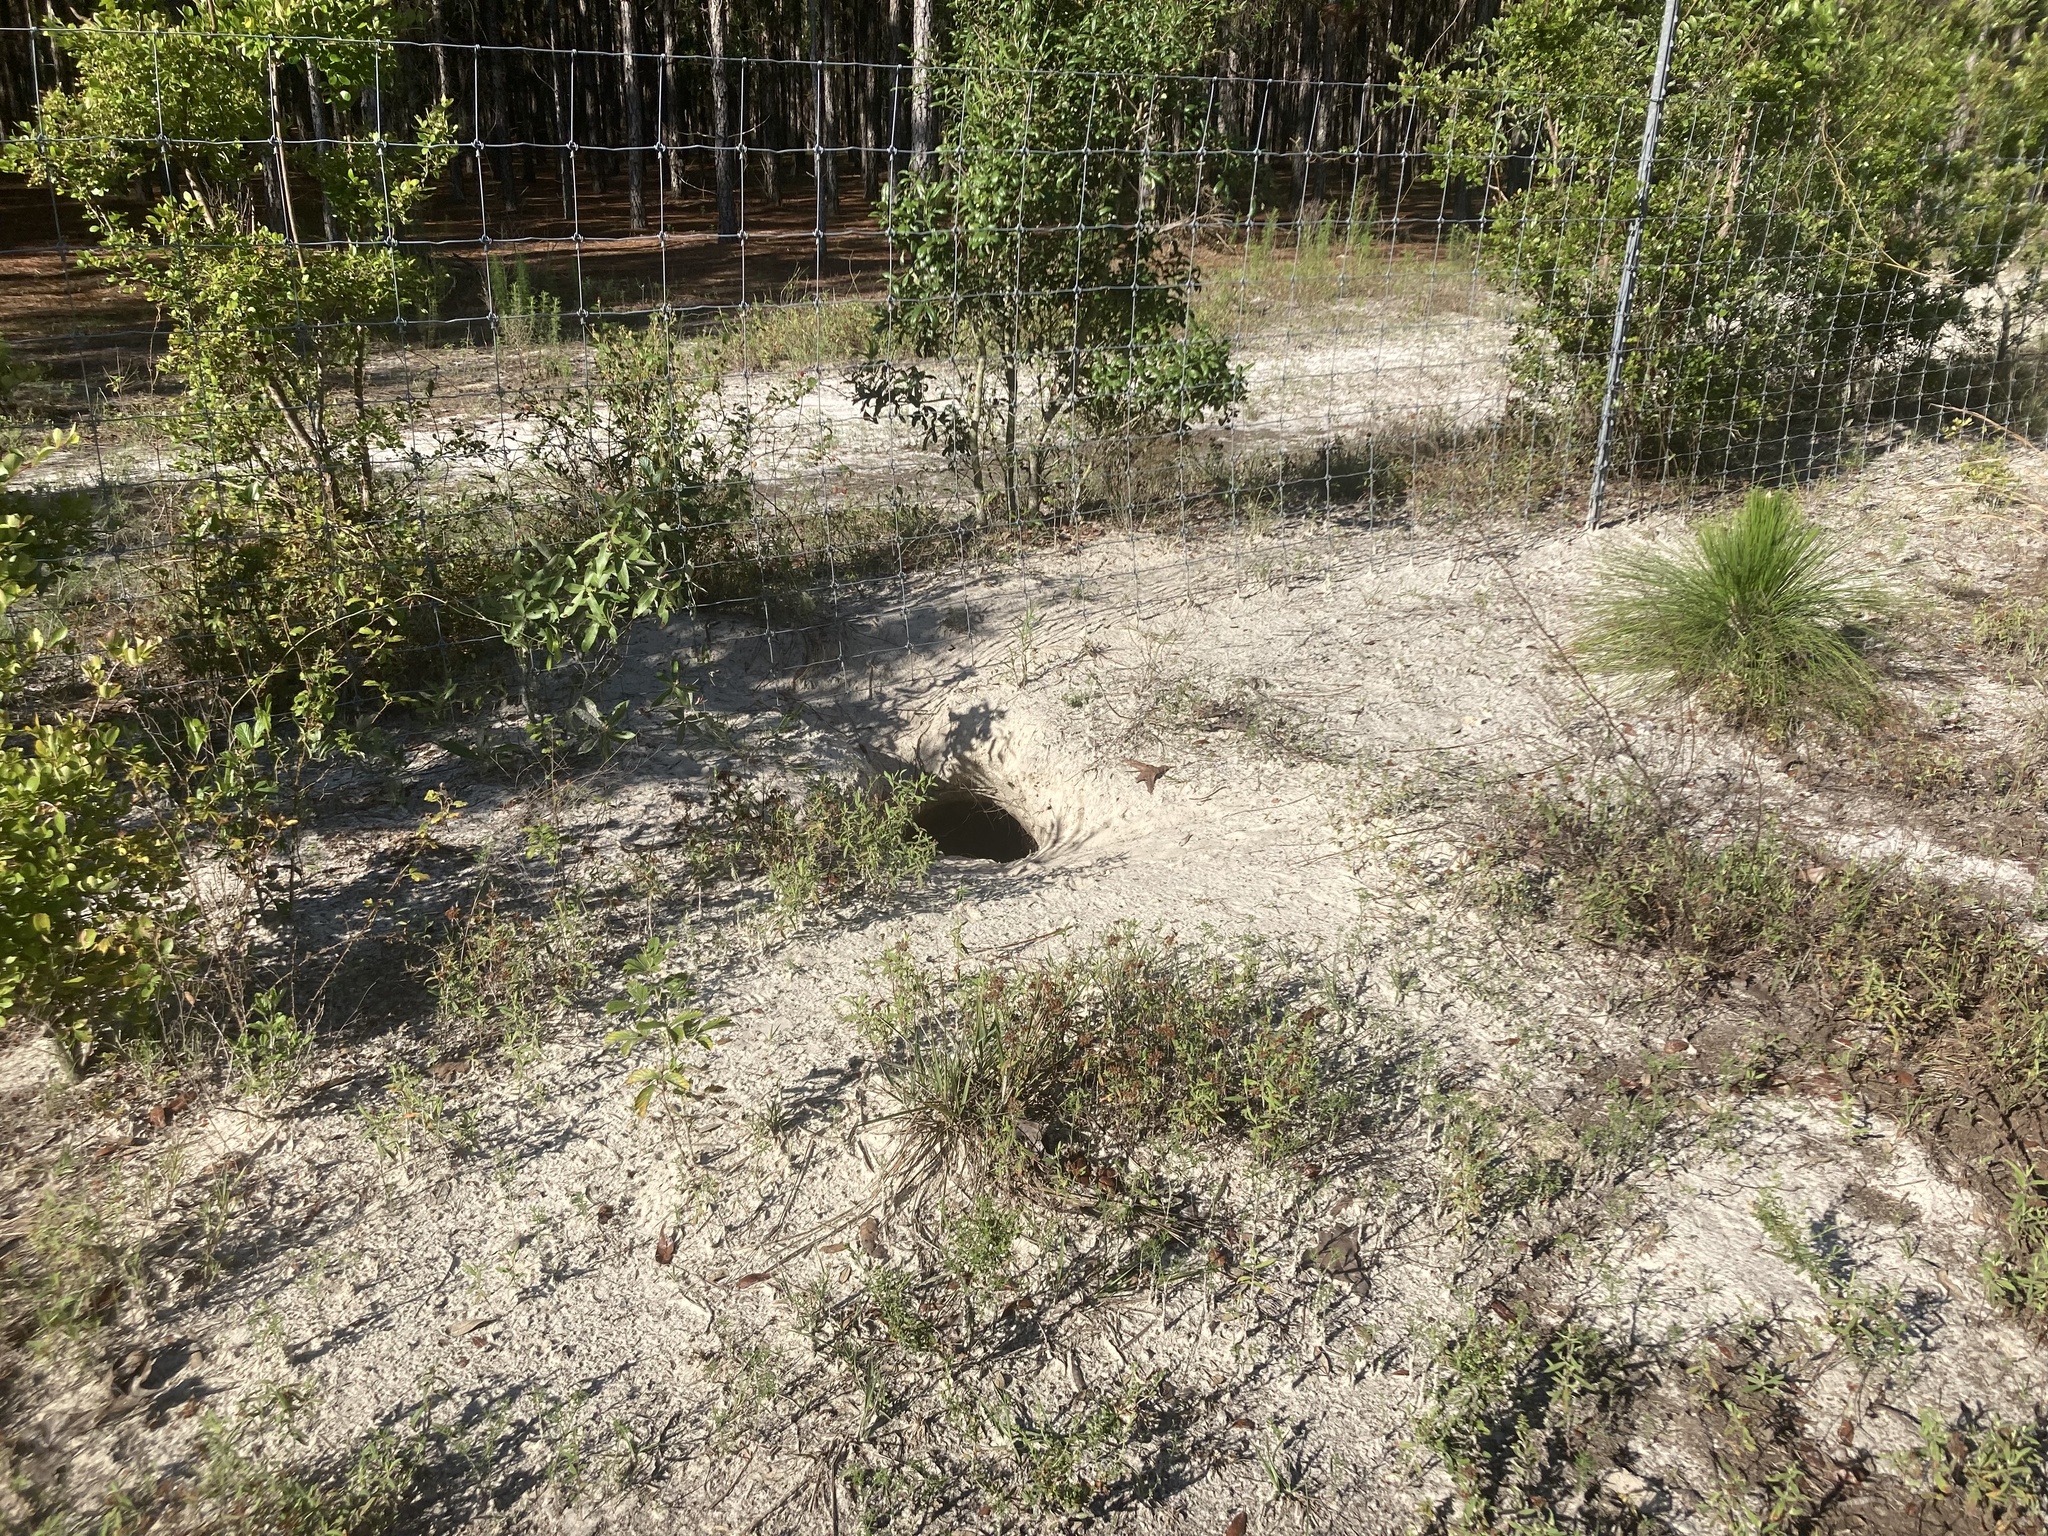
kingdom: Animalia
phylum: Chordata
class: Testudines
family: Testudinidae
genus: Gopherus
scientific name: Gopherus polyphemus
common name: Florida gopher tortoise
